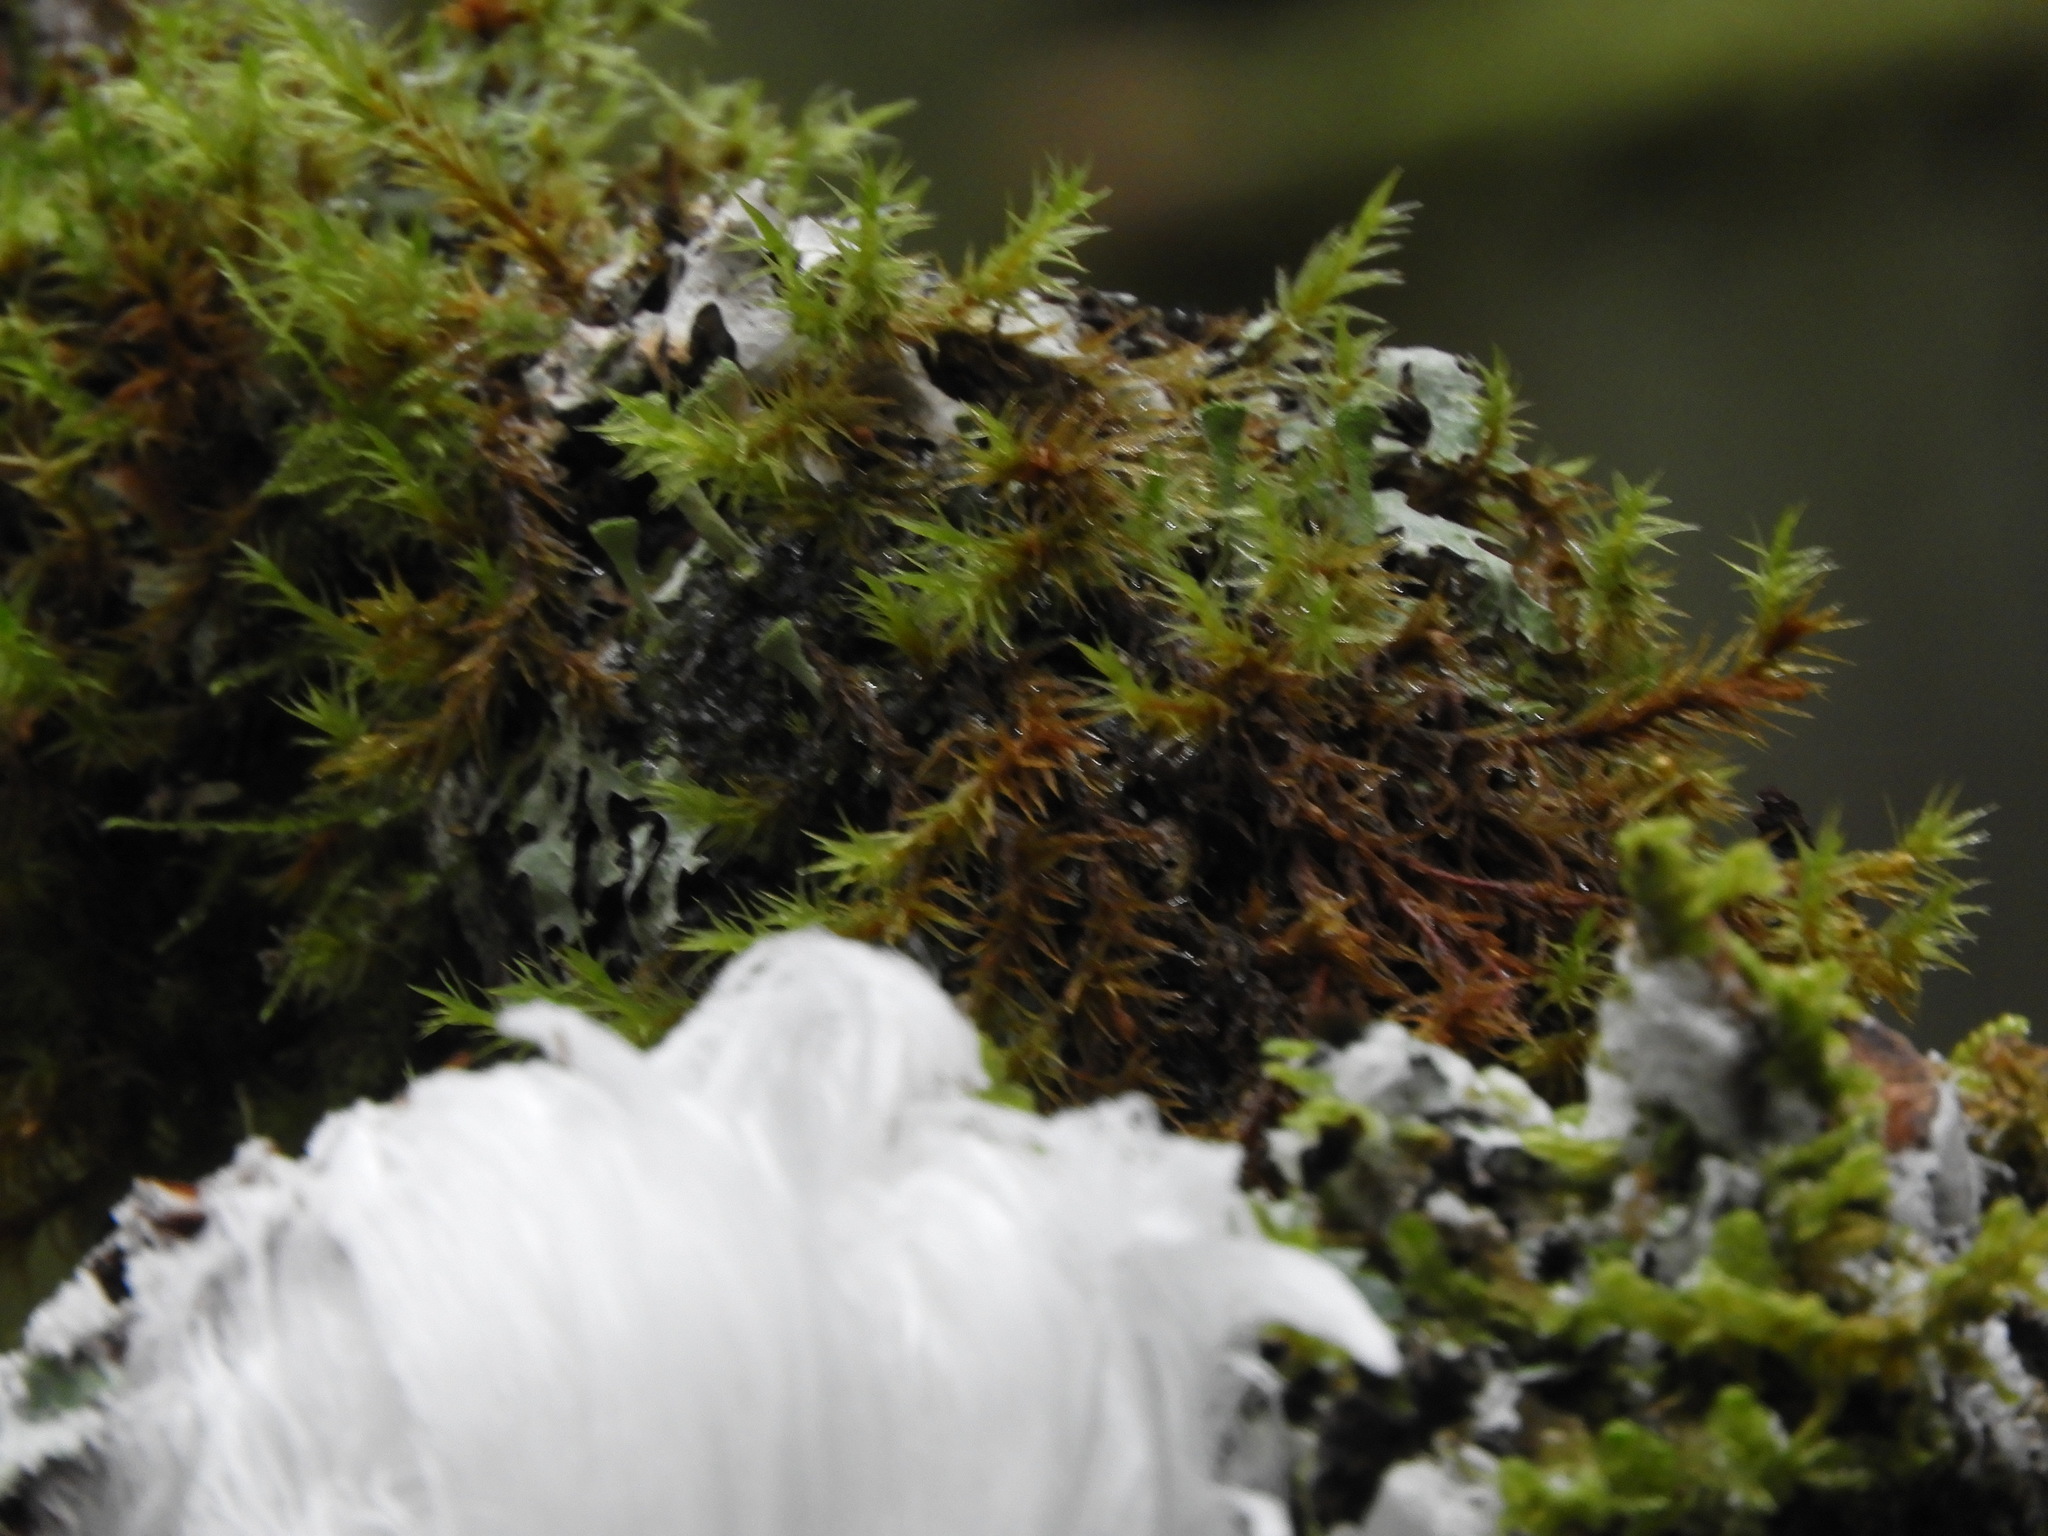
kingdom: Plantae
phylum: Bryophyta
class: Bryopsida
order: Orthotrichales
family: Orthotrichaceae
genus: Pulvigera
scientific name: Pulvigera lyellii
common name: Lyell's bristle-moss
